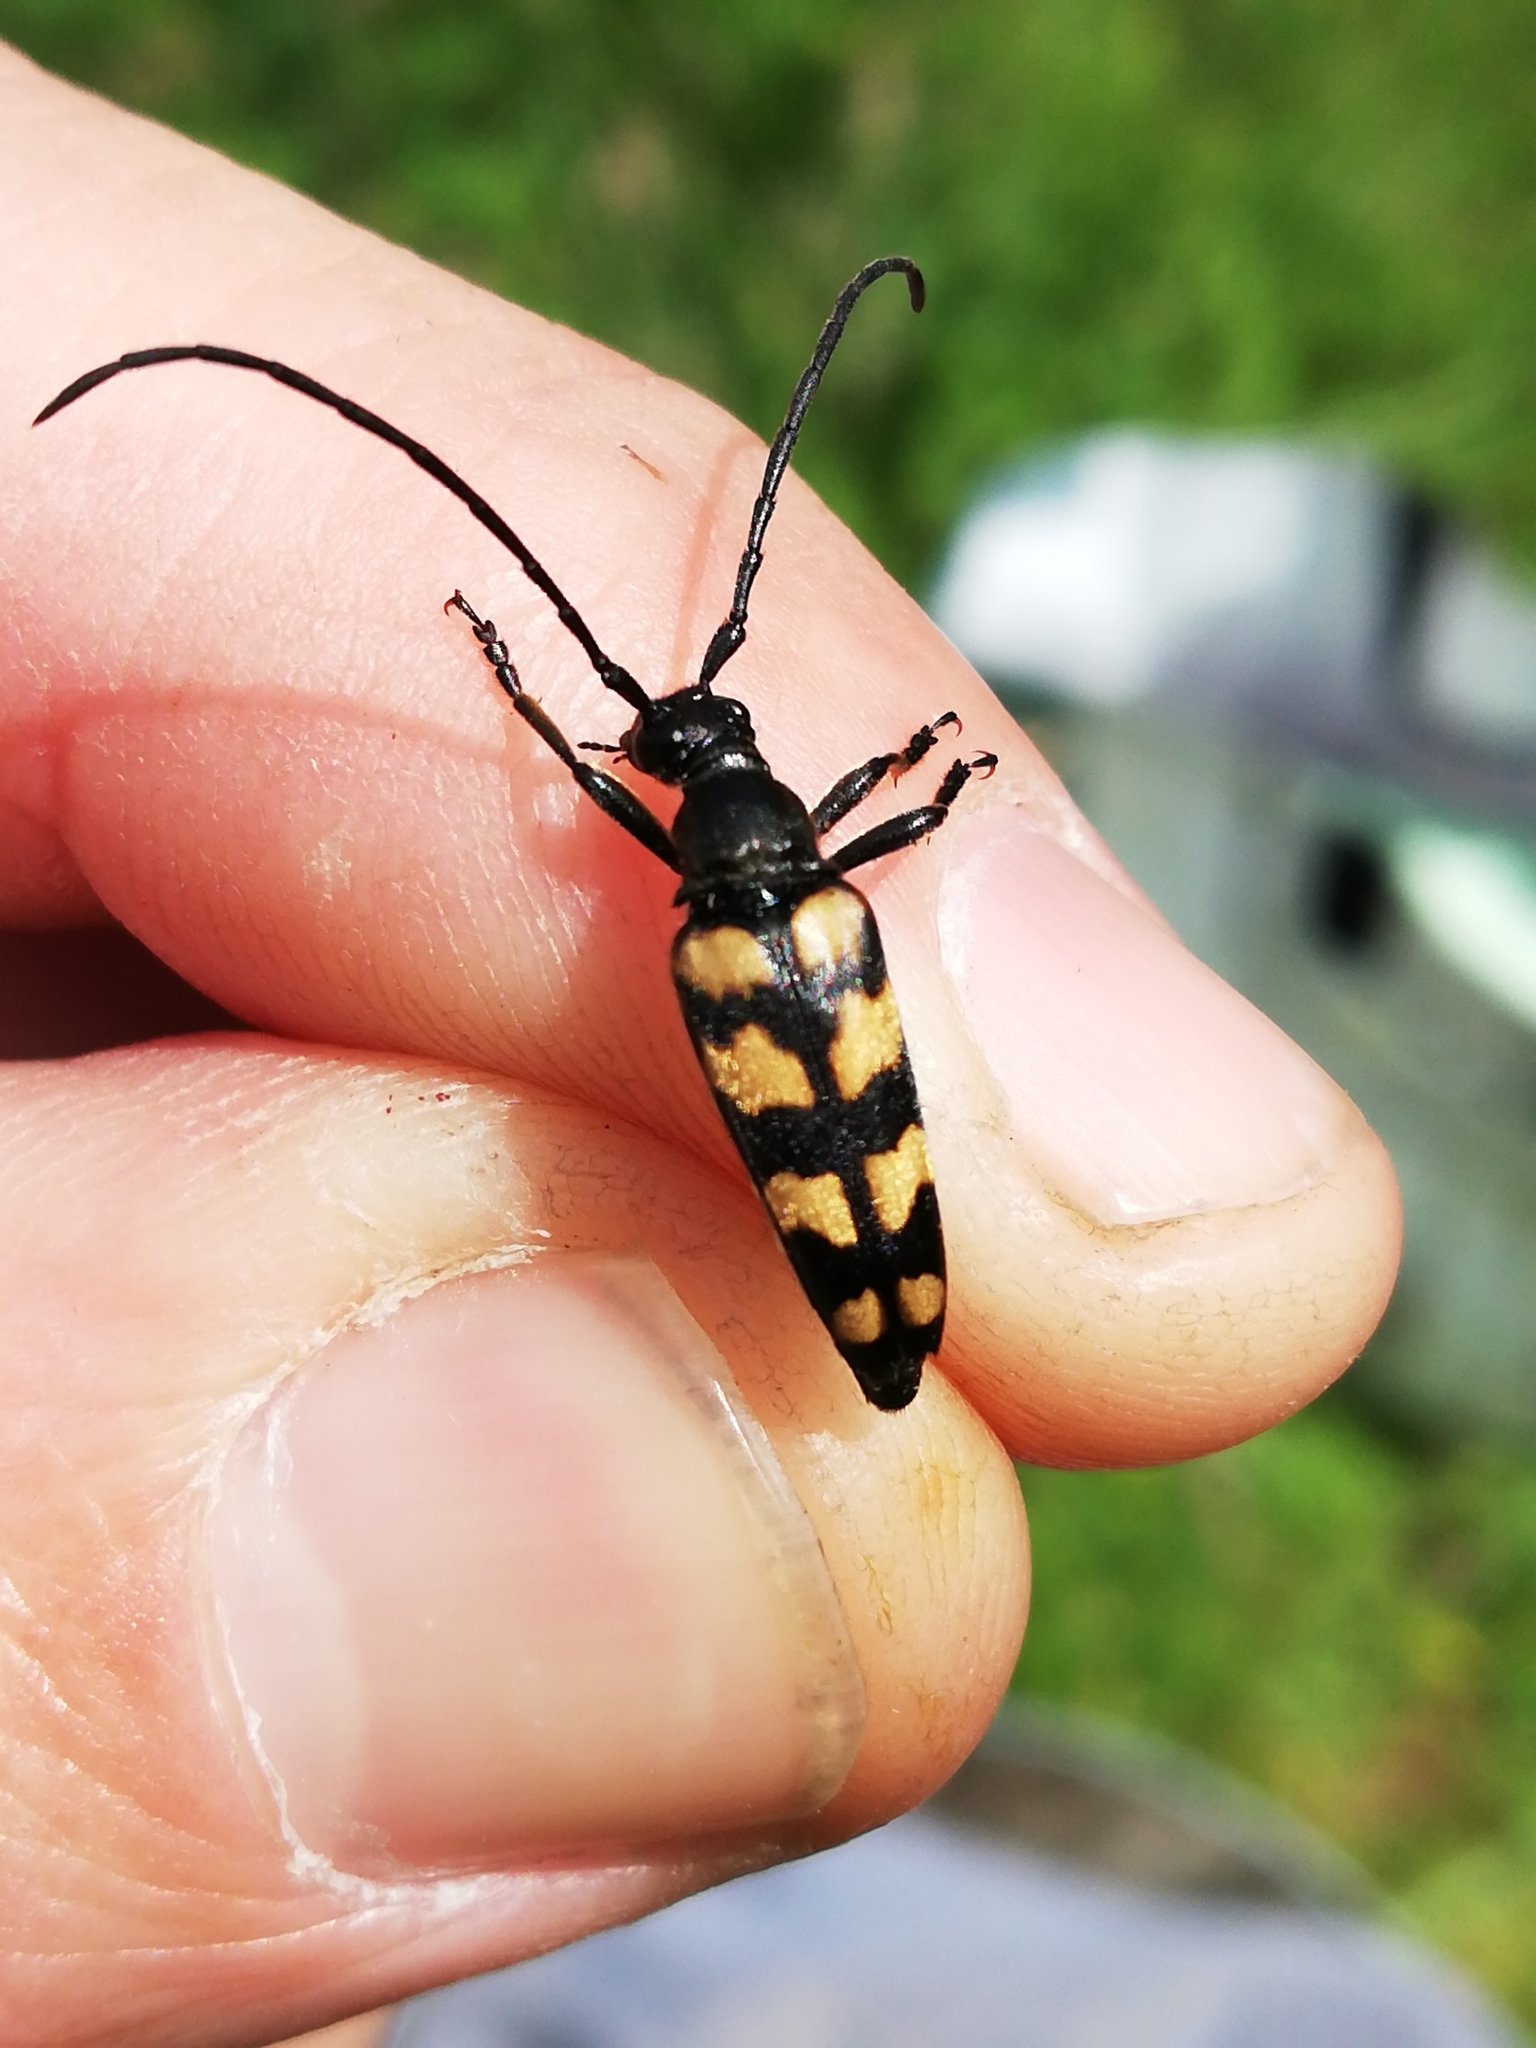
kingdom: Animalia
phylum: Arthropoda
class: Insecta
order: Coleoptera
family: Cerambycidae
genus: Leptura
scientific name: Leptura quadrifasciata
